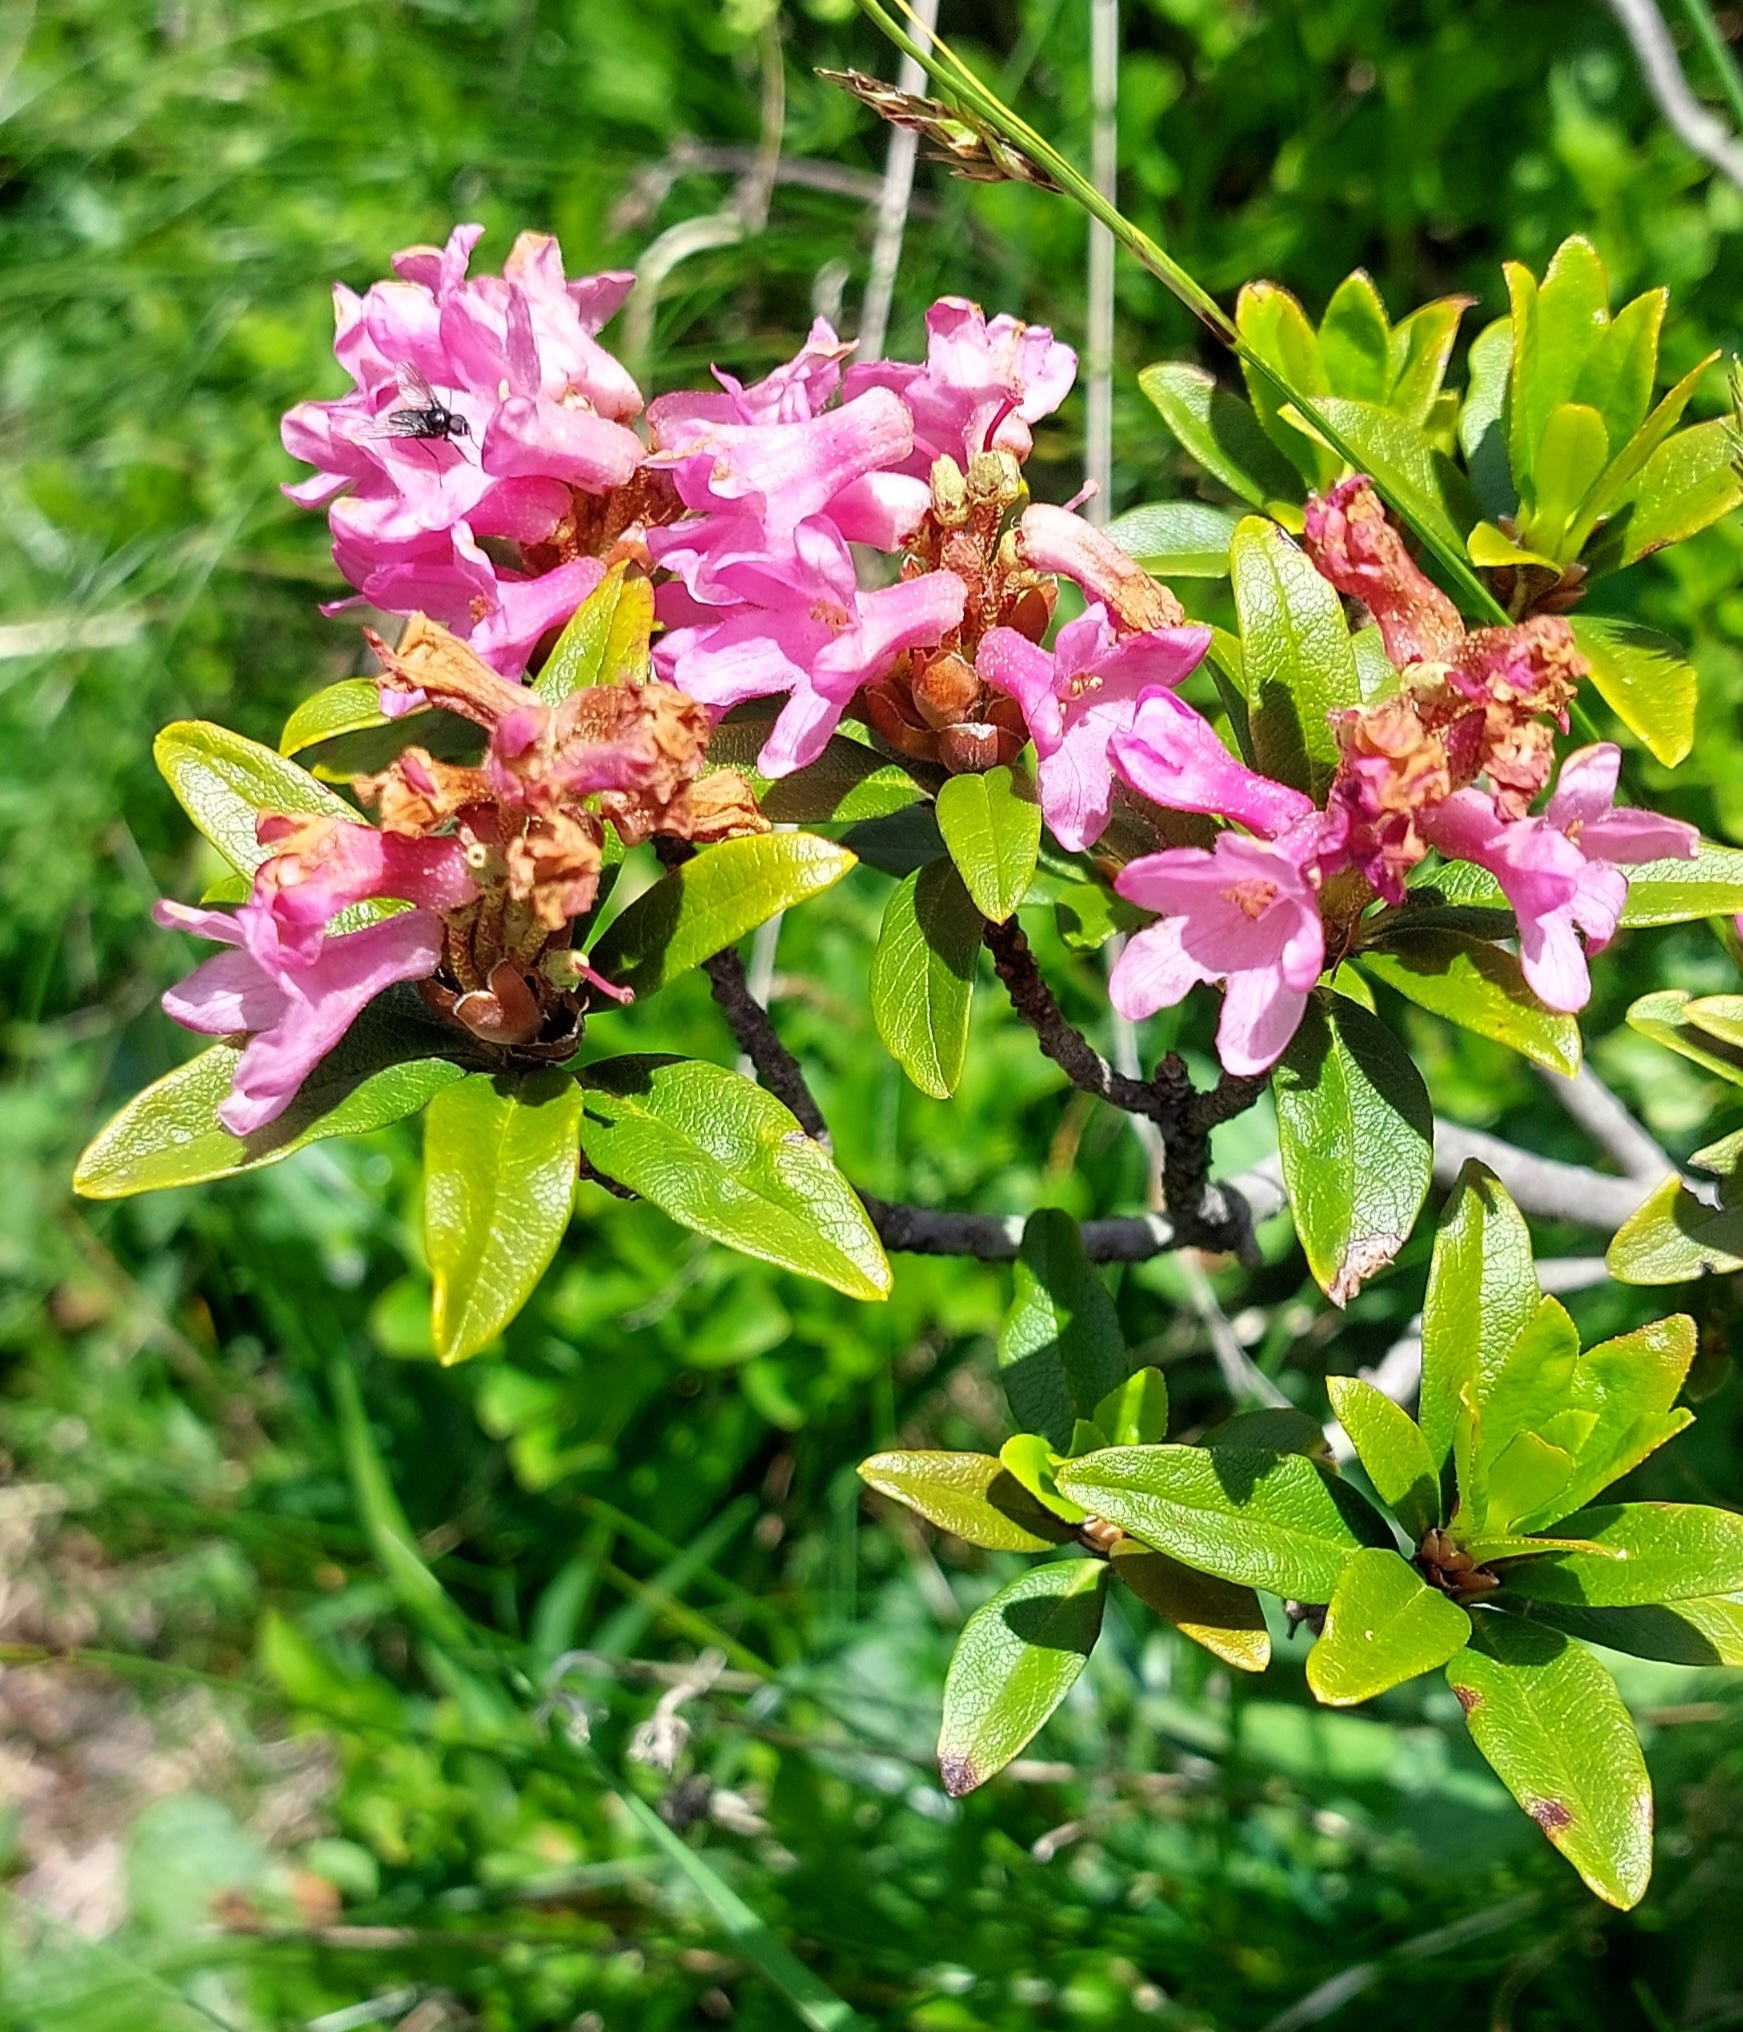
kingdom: Plantae
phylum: Tracheophyta
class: Magnoliopsida
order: Ericales
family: Ericaceae
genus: Rhododendron
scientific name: Rhododendron ferrugineum
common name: Alpenrose
